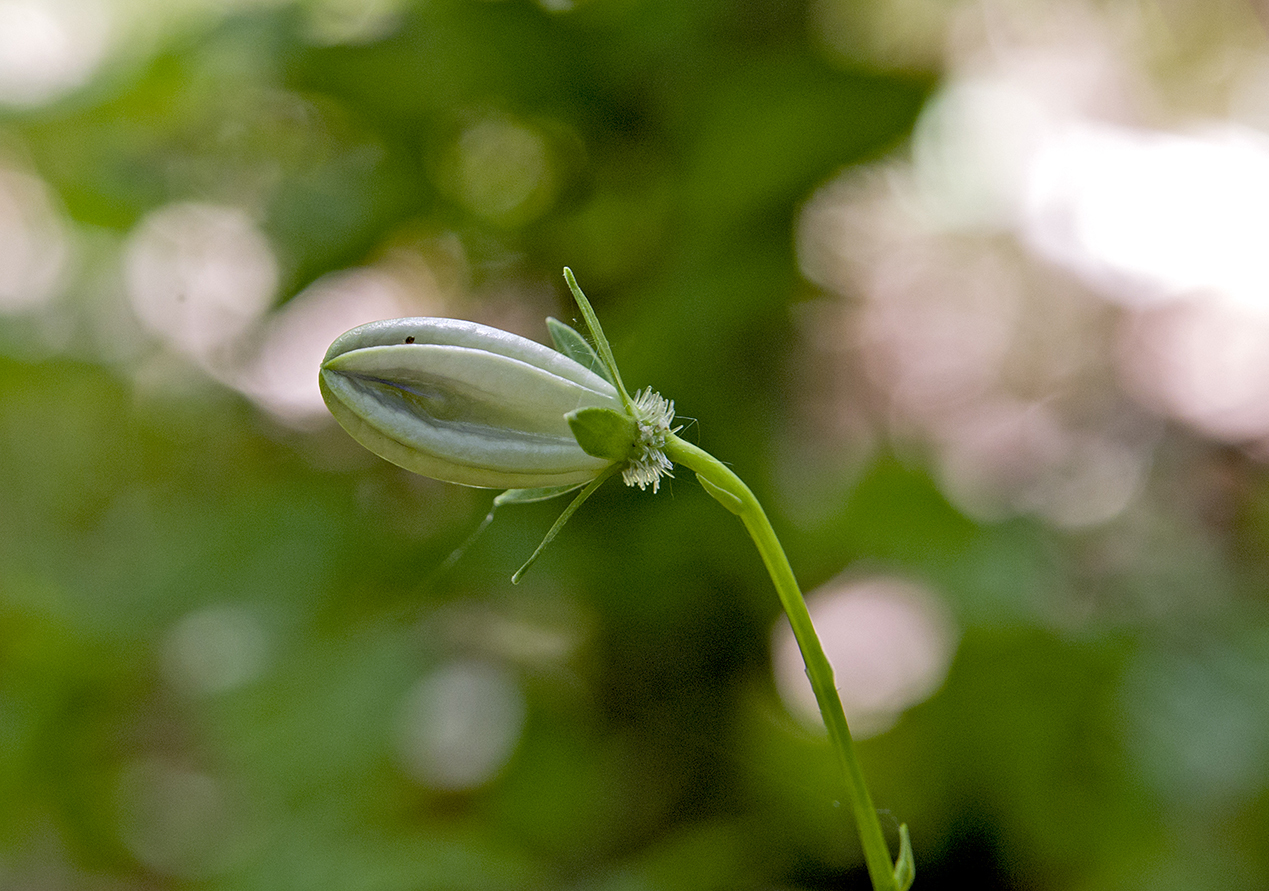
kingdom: Plantae
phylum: Tracheophyta
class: Magnoliopsida
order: Asterales
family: Campanulaceae
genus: Campanula
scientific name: Campanula persicifolia
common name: Peach-leaved bellflower
